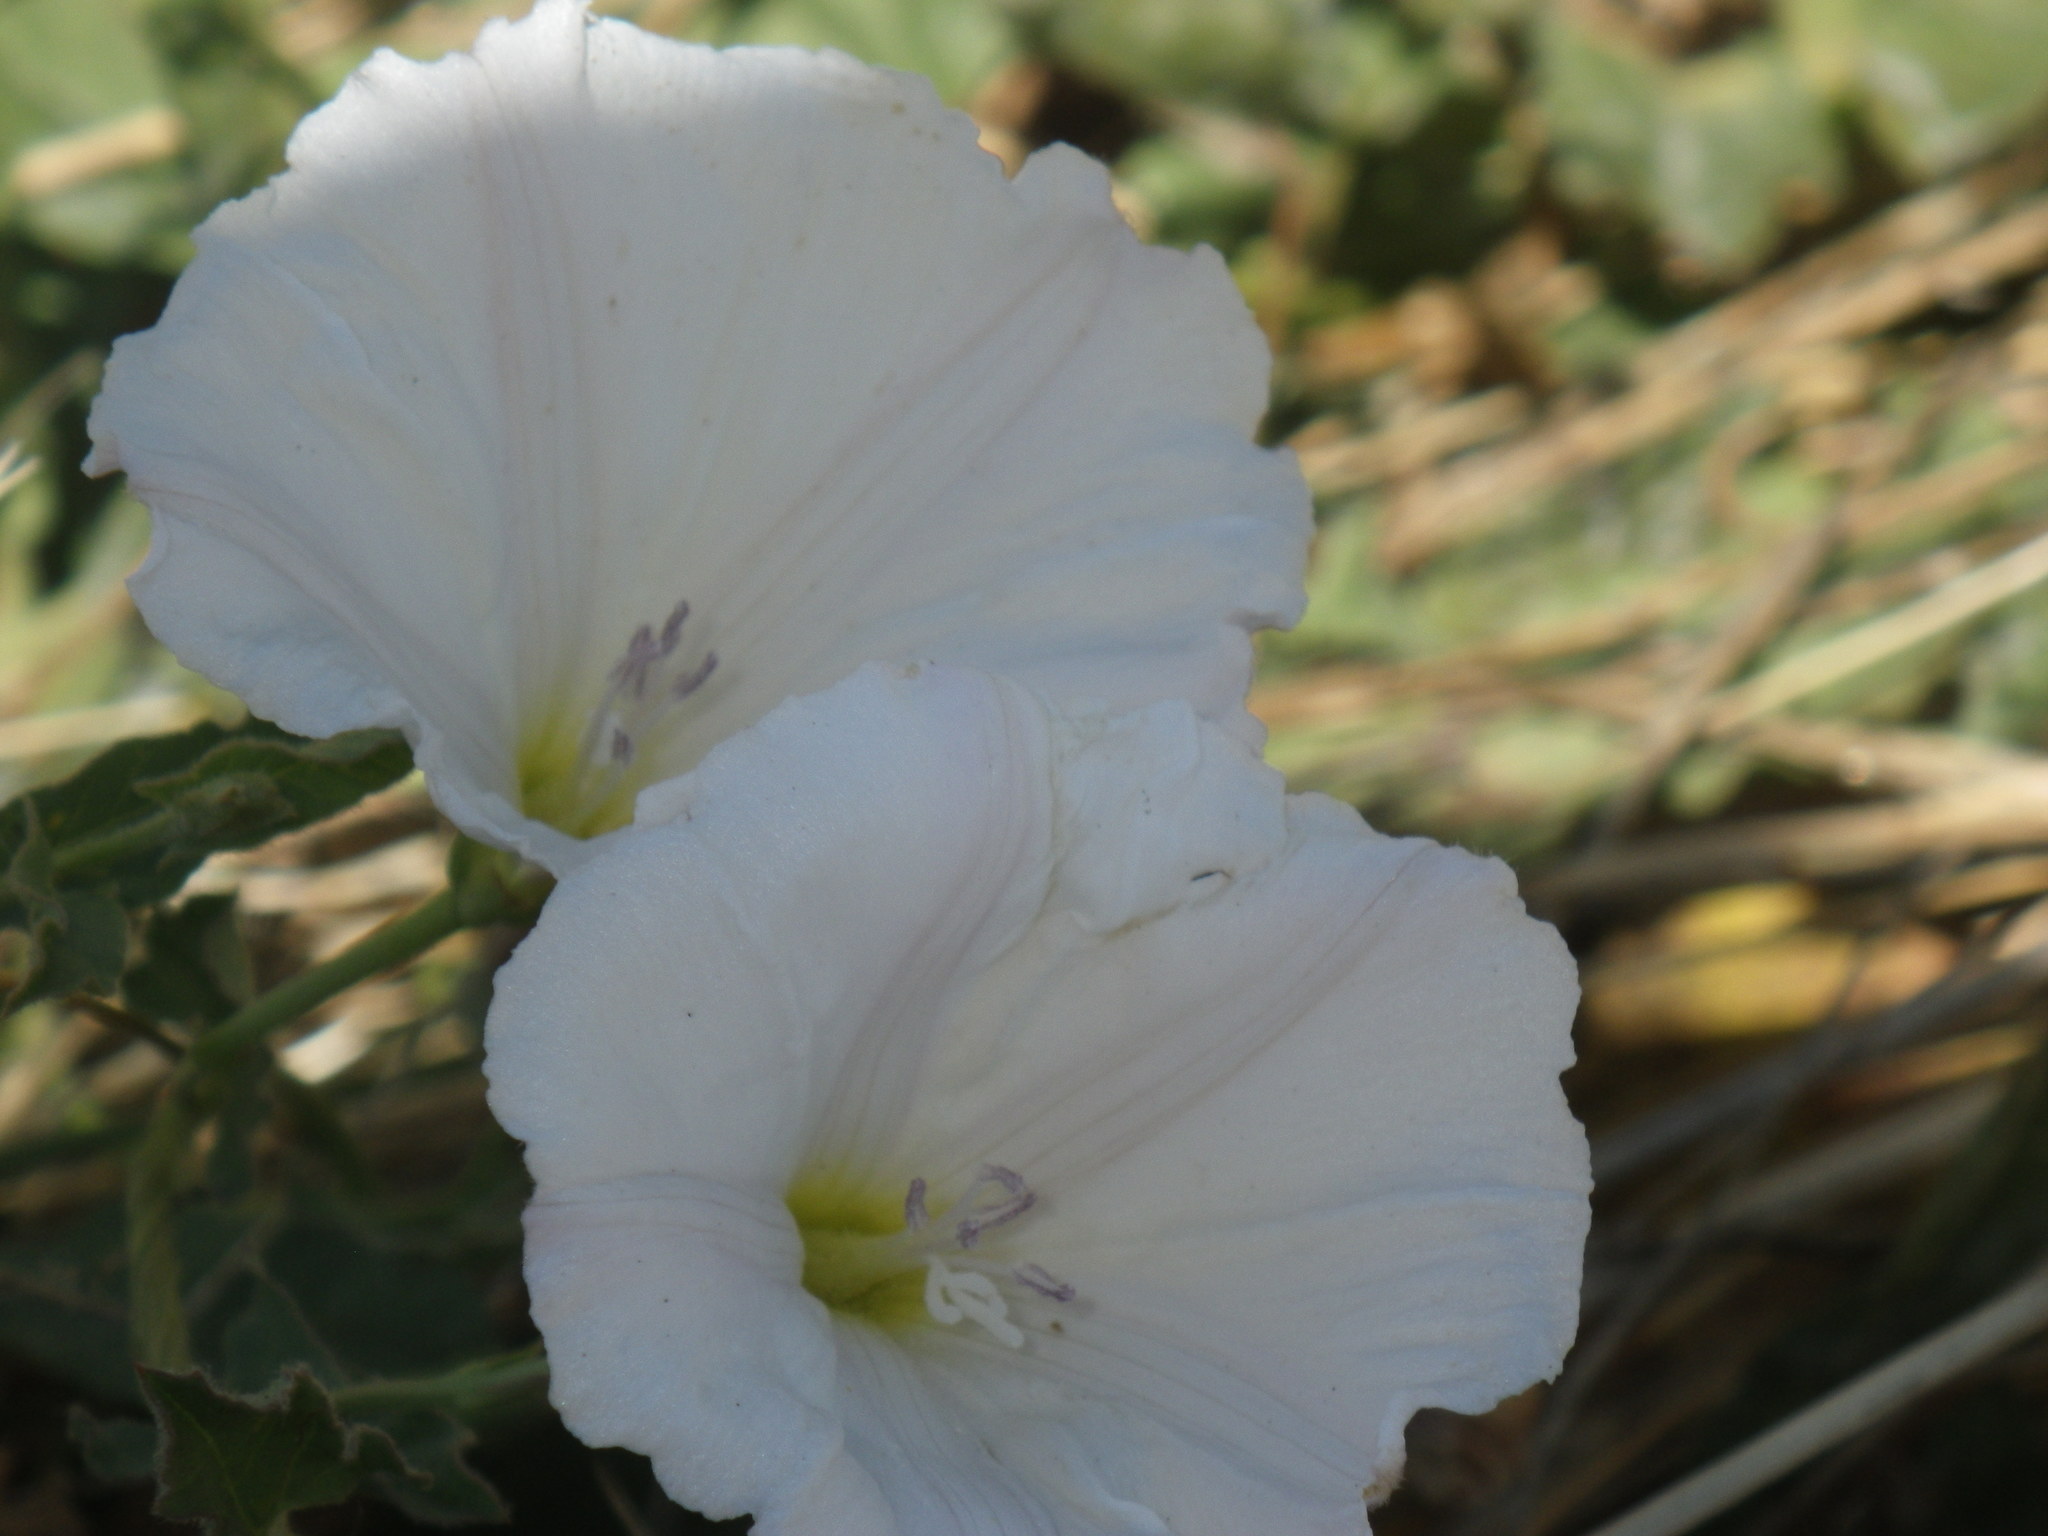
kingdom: Plantae
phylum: Tracheophyta
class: Magnoliopsida
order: Solanales
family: Convolvulaceae
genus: Convolvulus
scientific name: Convolvulus arvensis
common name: Field bindweed
